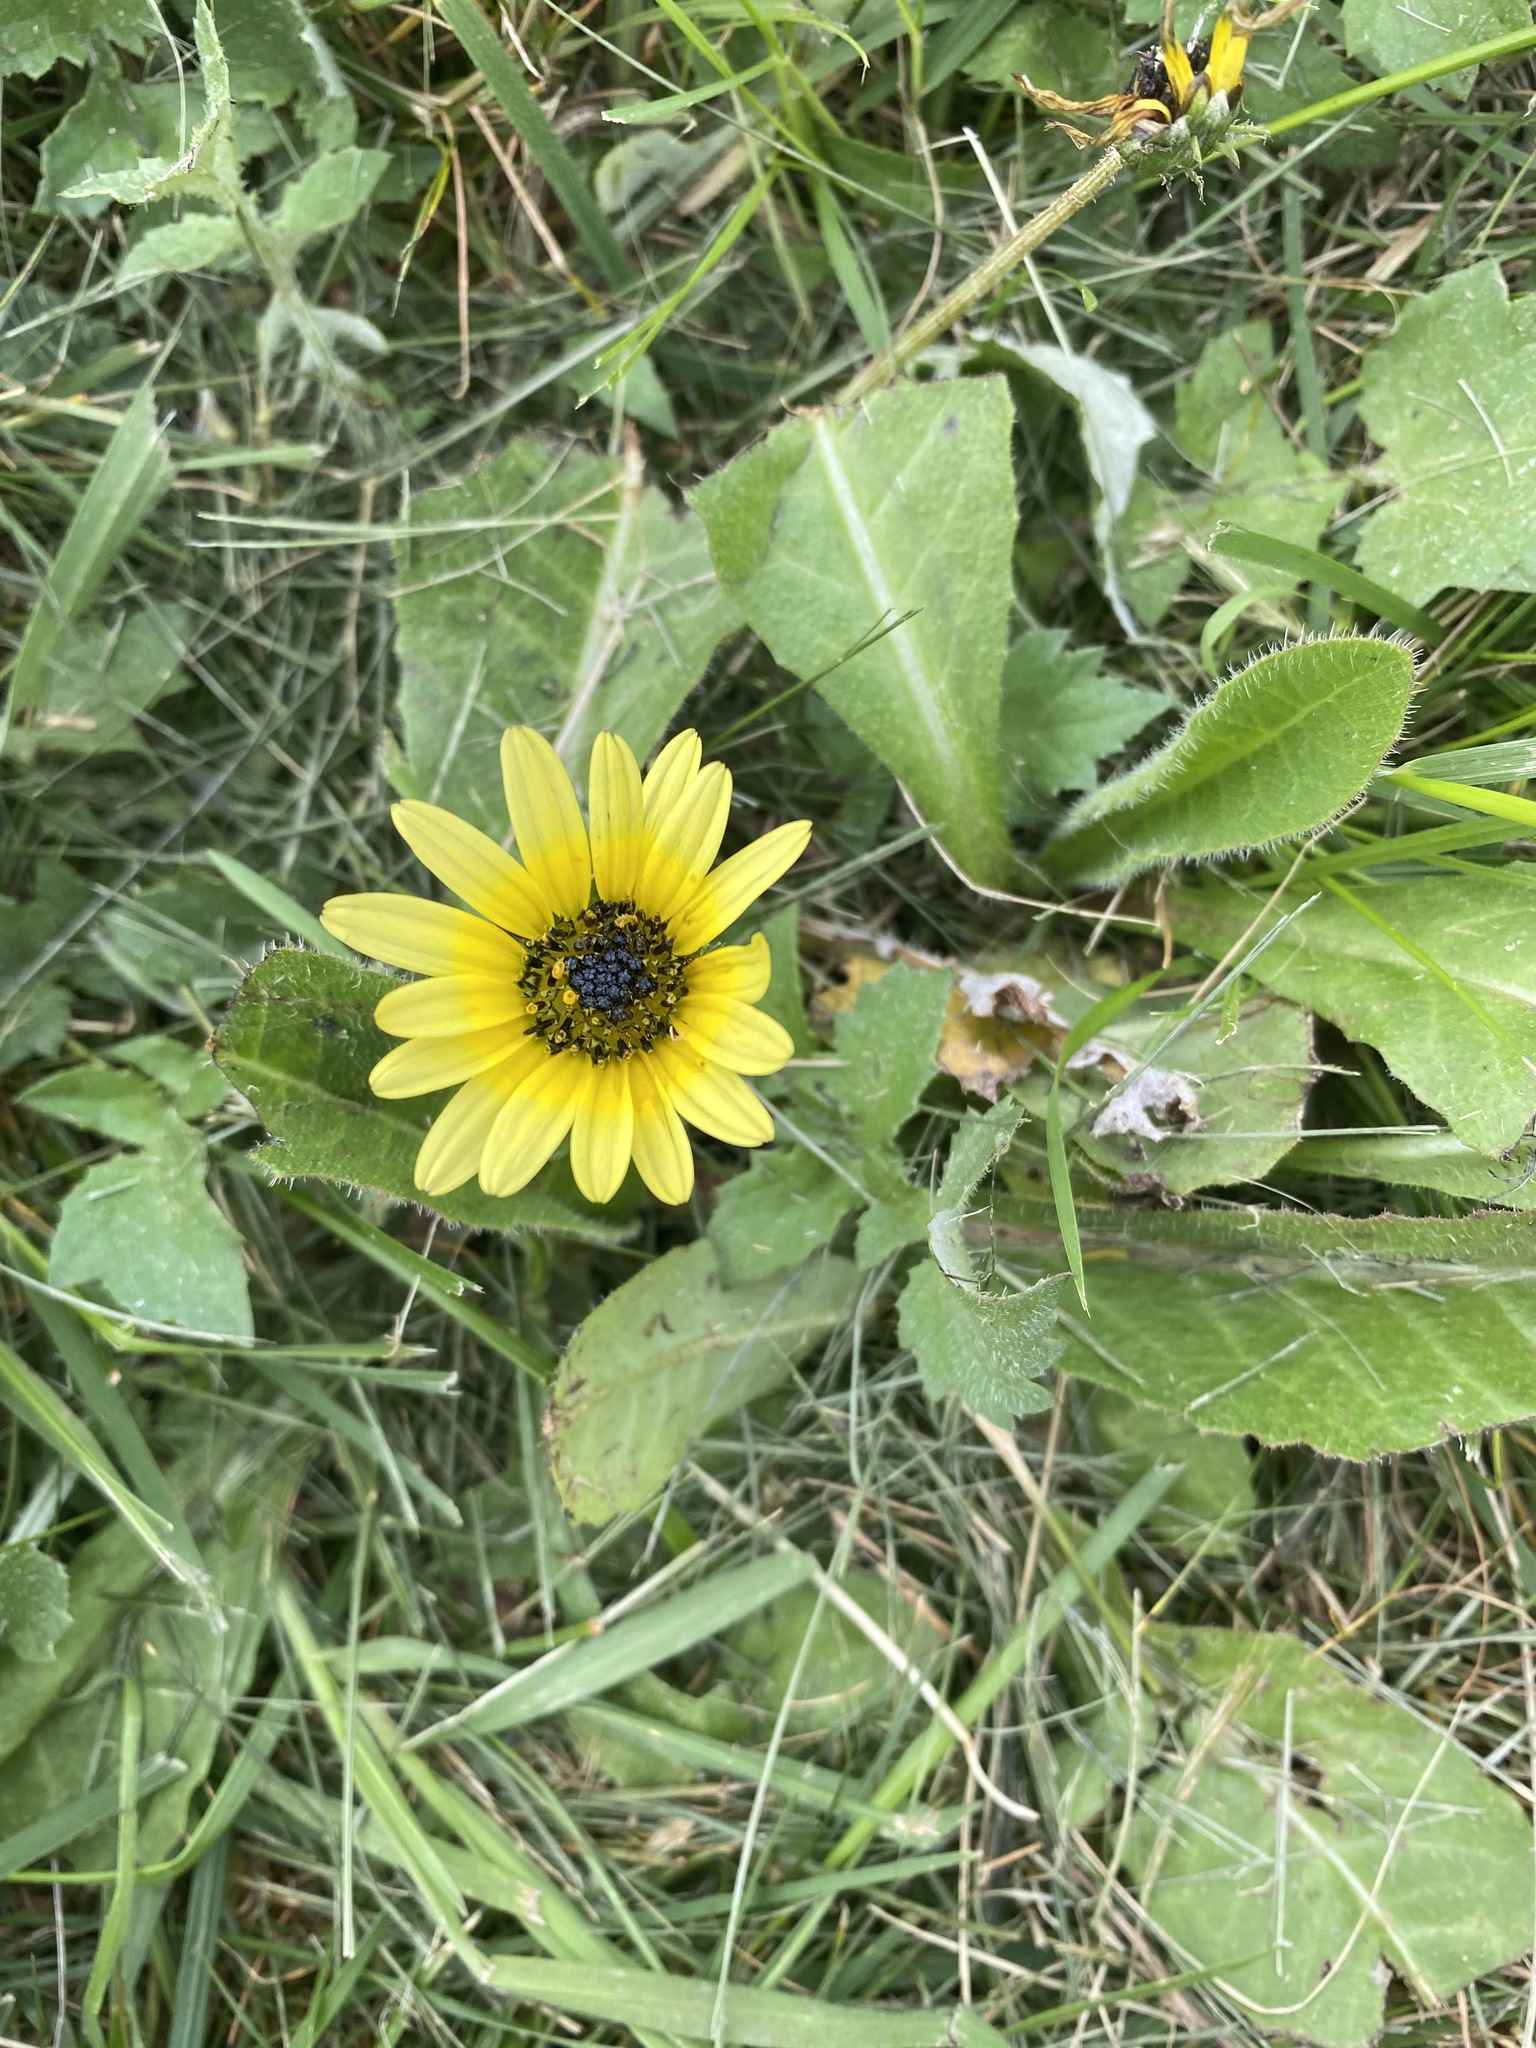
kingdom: Plantae
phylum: Tracheophyta
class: Magnoliopsida
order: Asterales
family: Asteraceae
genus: Arctotheca
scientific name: Arctotheca calendula
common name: Capeweed
